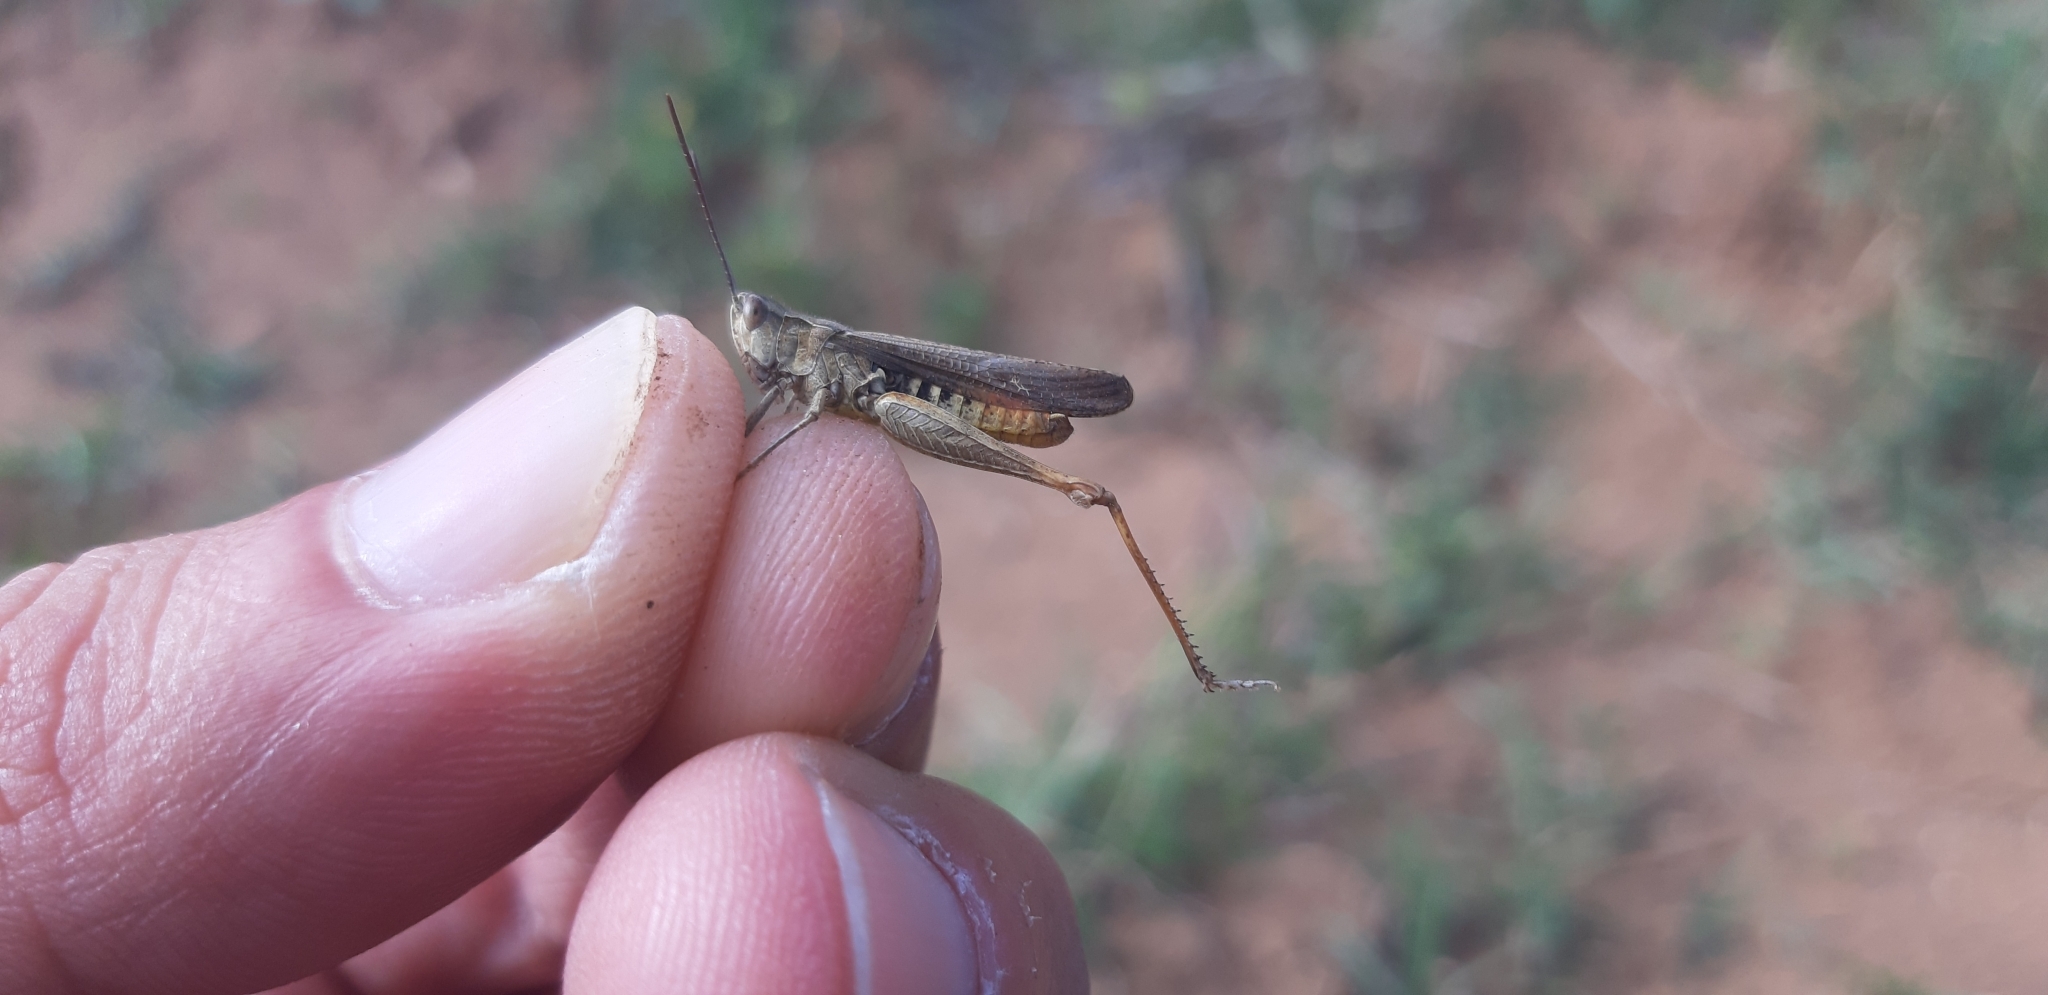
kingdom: Animalia
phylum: Arthropoda
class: Insecta
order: Orthoptera
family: Acrididae
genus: Chorthippus
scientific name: Chorthippus brunneus
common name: Field grasshopper
